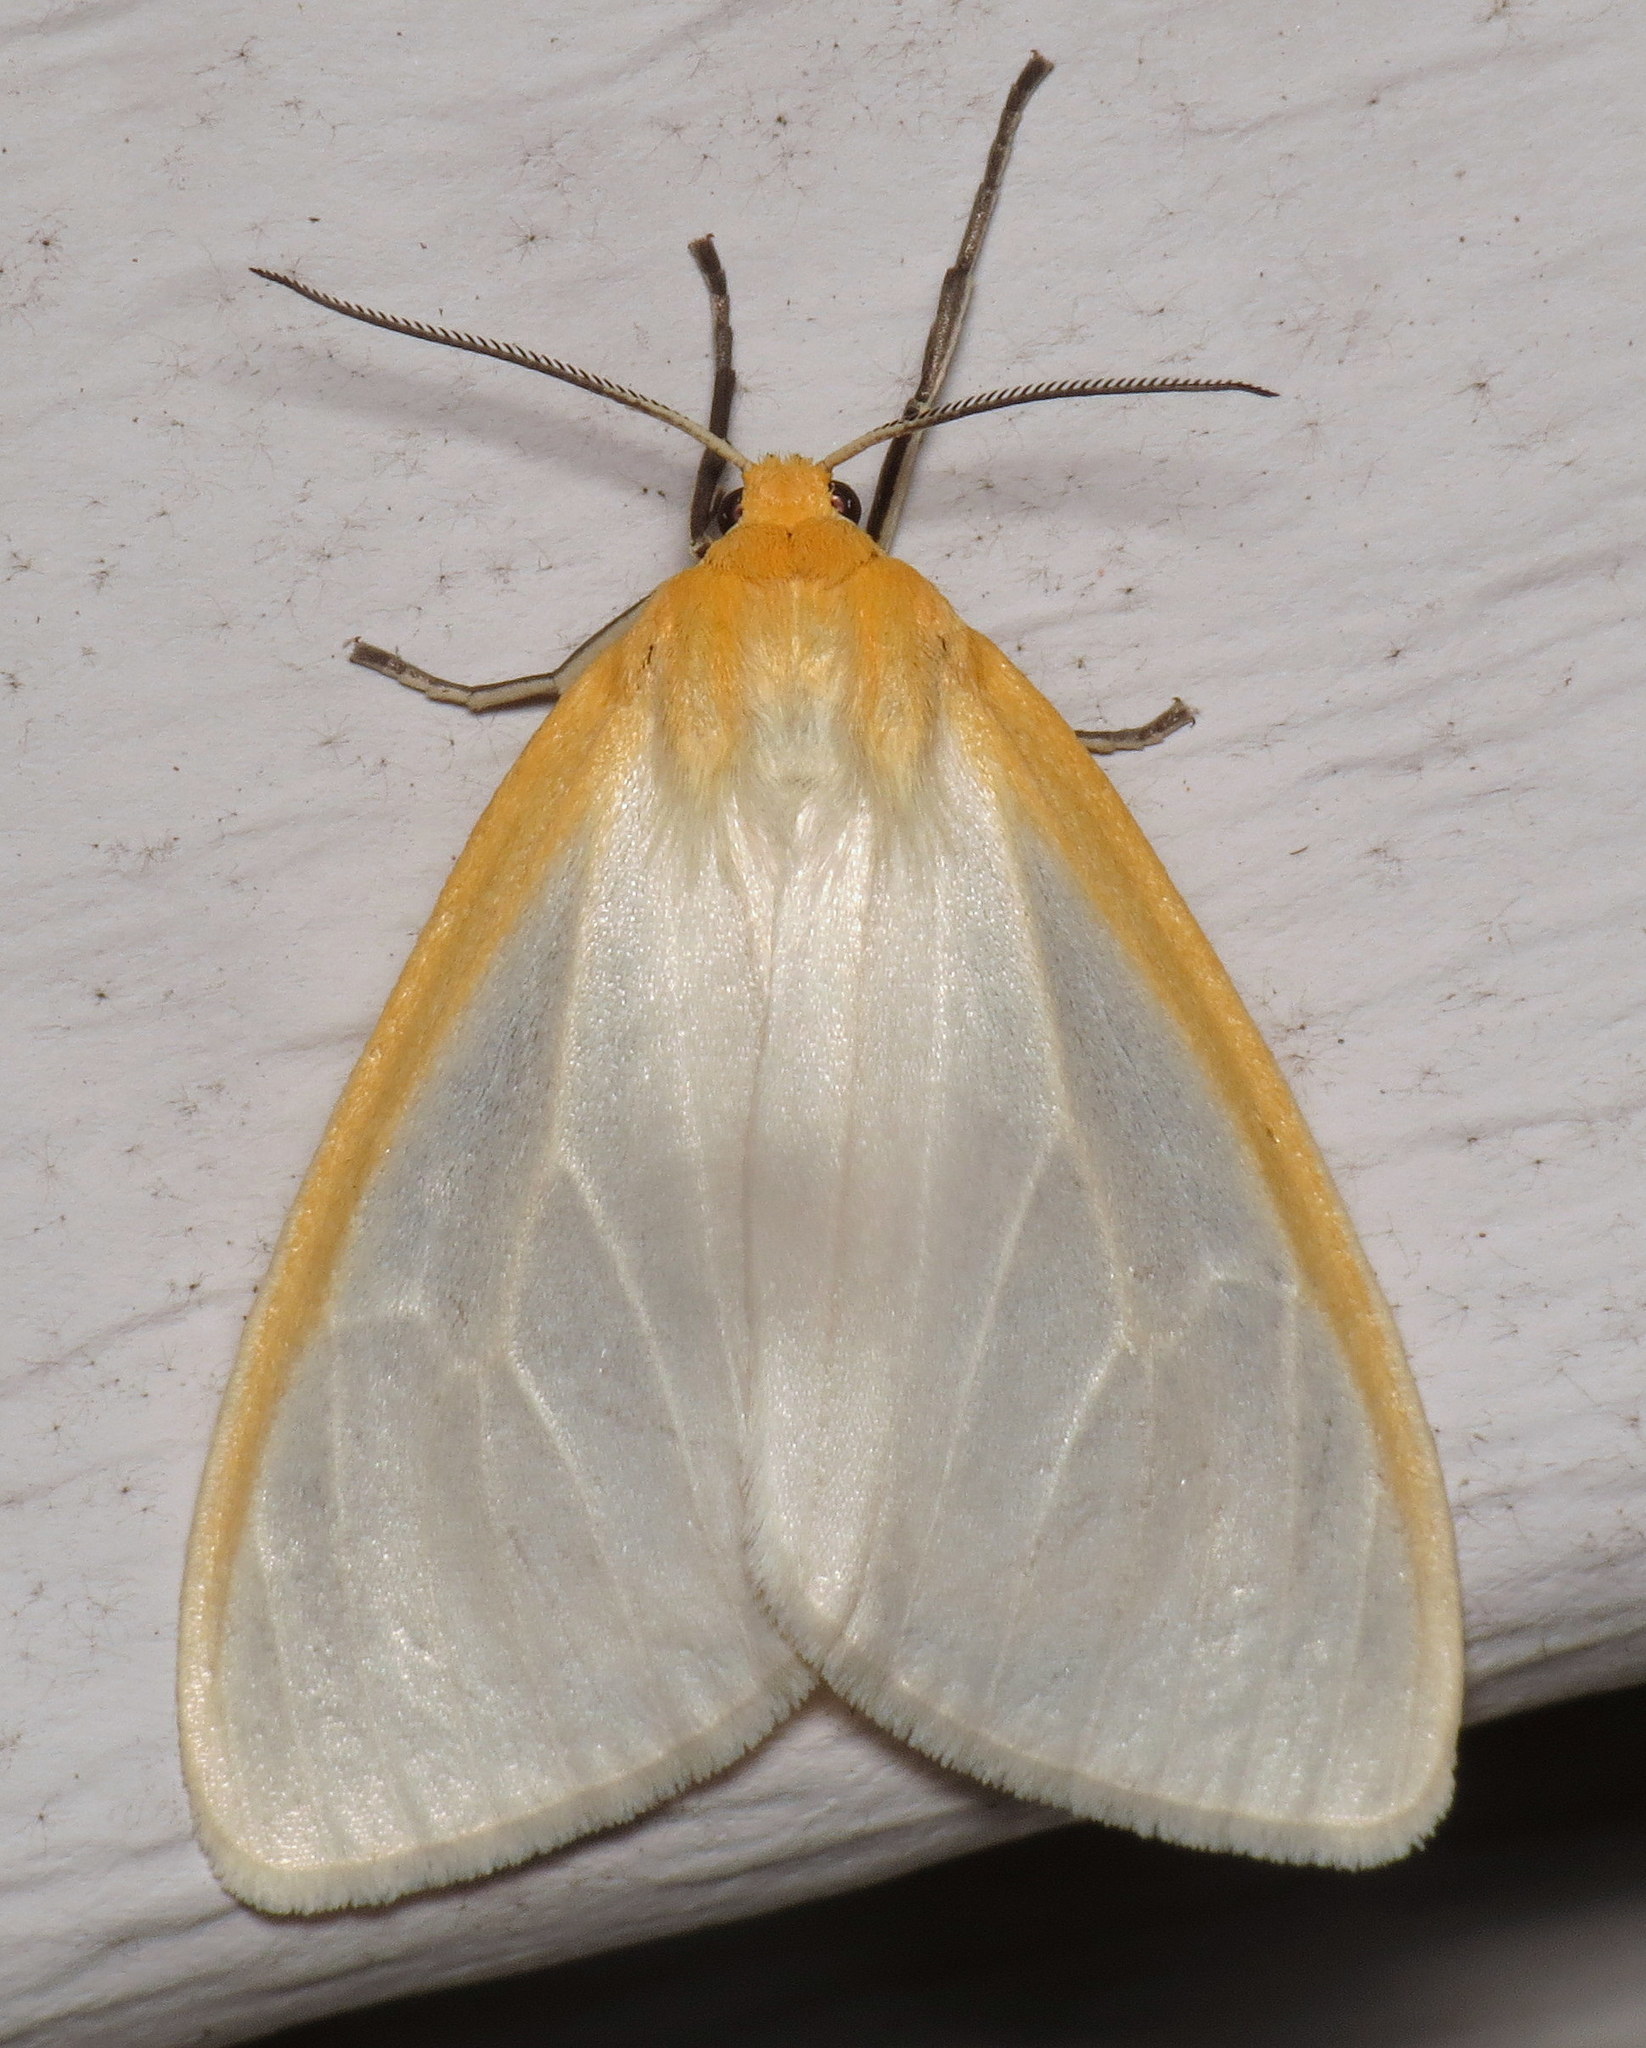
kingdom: Animalia
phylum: Arthropoda
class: Insecta
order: Lepidoptera
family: Erebidae
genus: Cycnia
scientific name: Cycnia tenera
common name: Delicate cycnia moth
